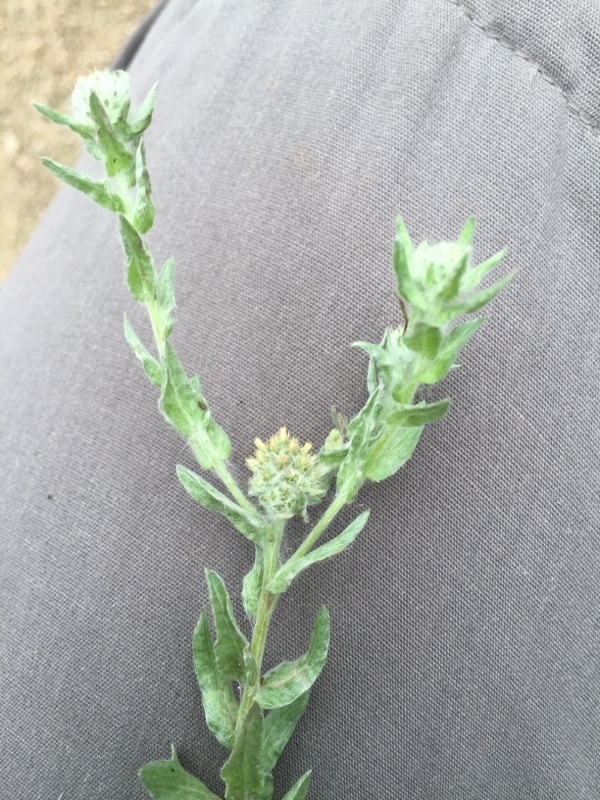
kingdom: Plantae
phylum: Tracheophyta
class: Magnoliopsida
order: Asterales
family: Asteraceae
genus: Filago
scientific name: Filago germanica
